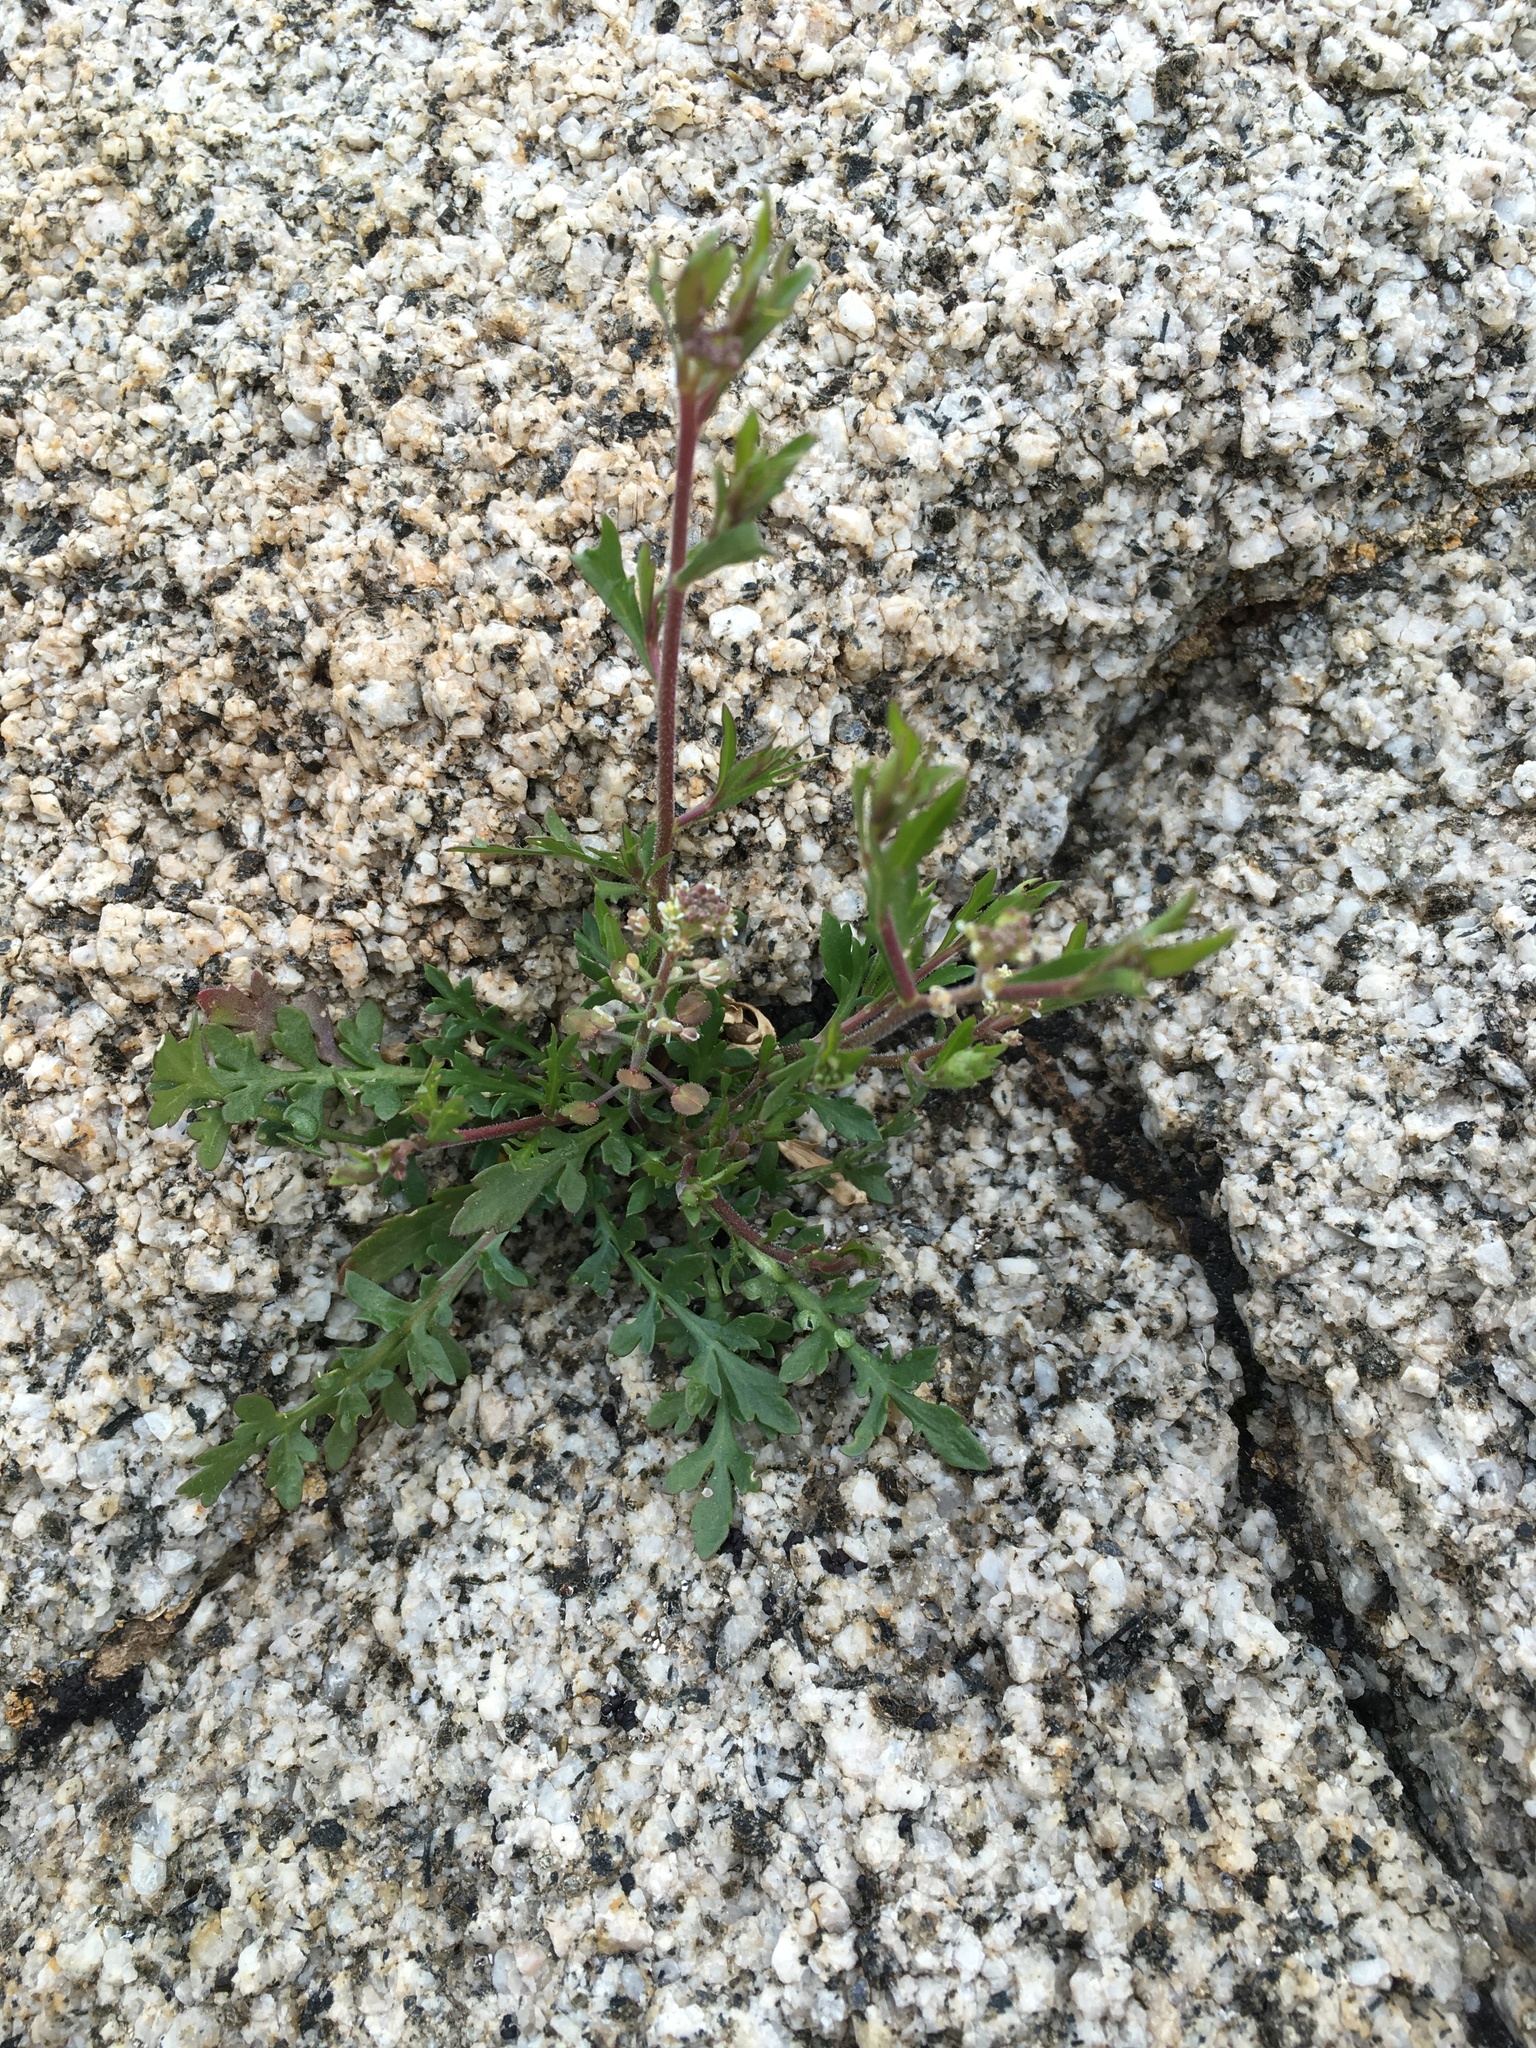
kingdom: Plantae
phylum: Tracheophyta
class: Magnoliopsida
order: Brassicales
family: Brassicaceae
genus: Lepidium
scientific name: Lepidium lasiocarpum
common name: Hairy-pod pepperwort
